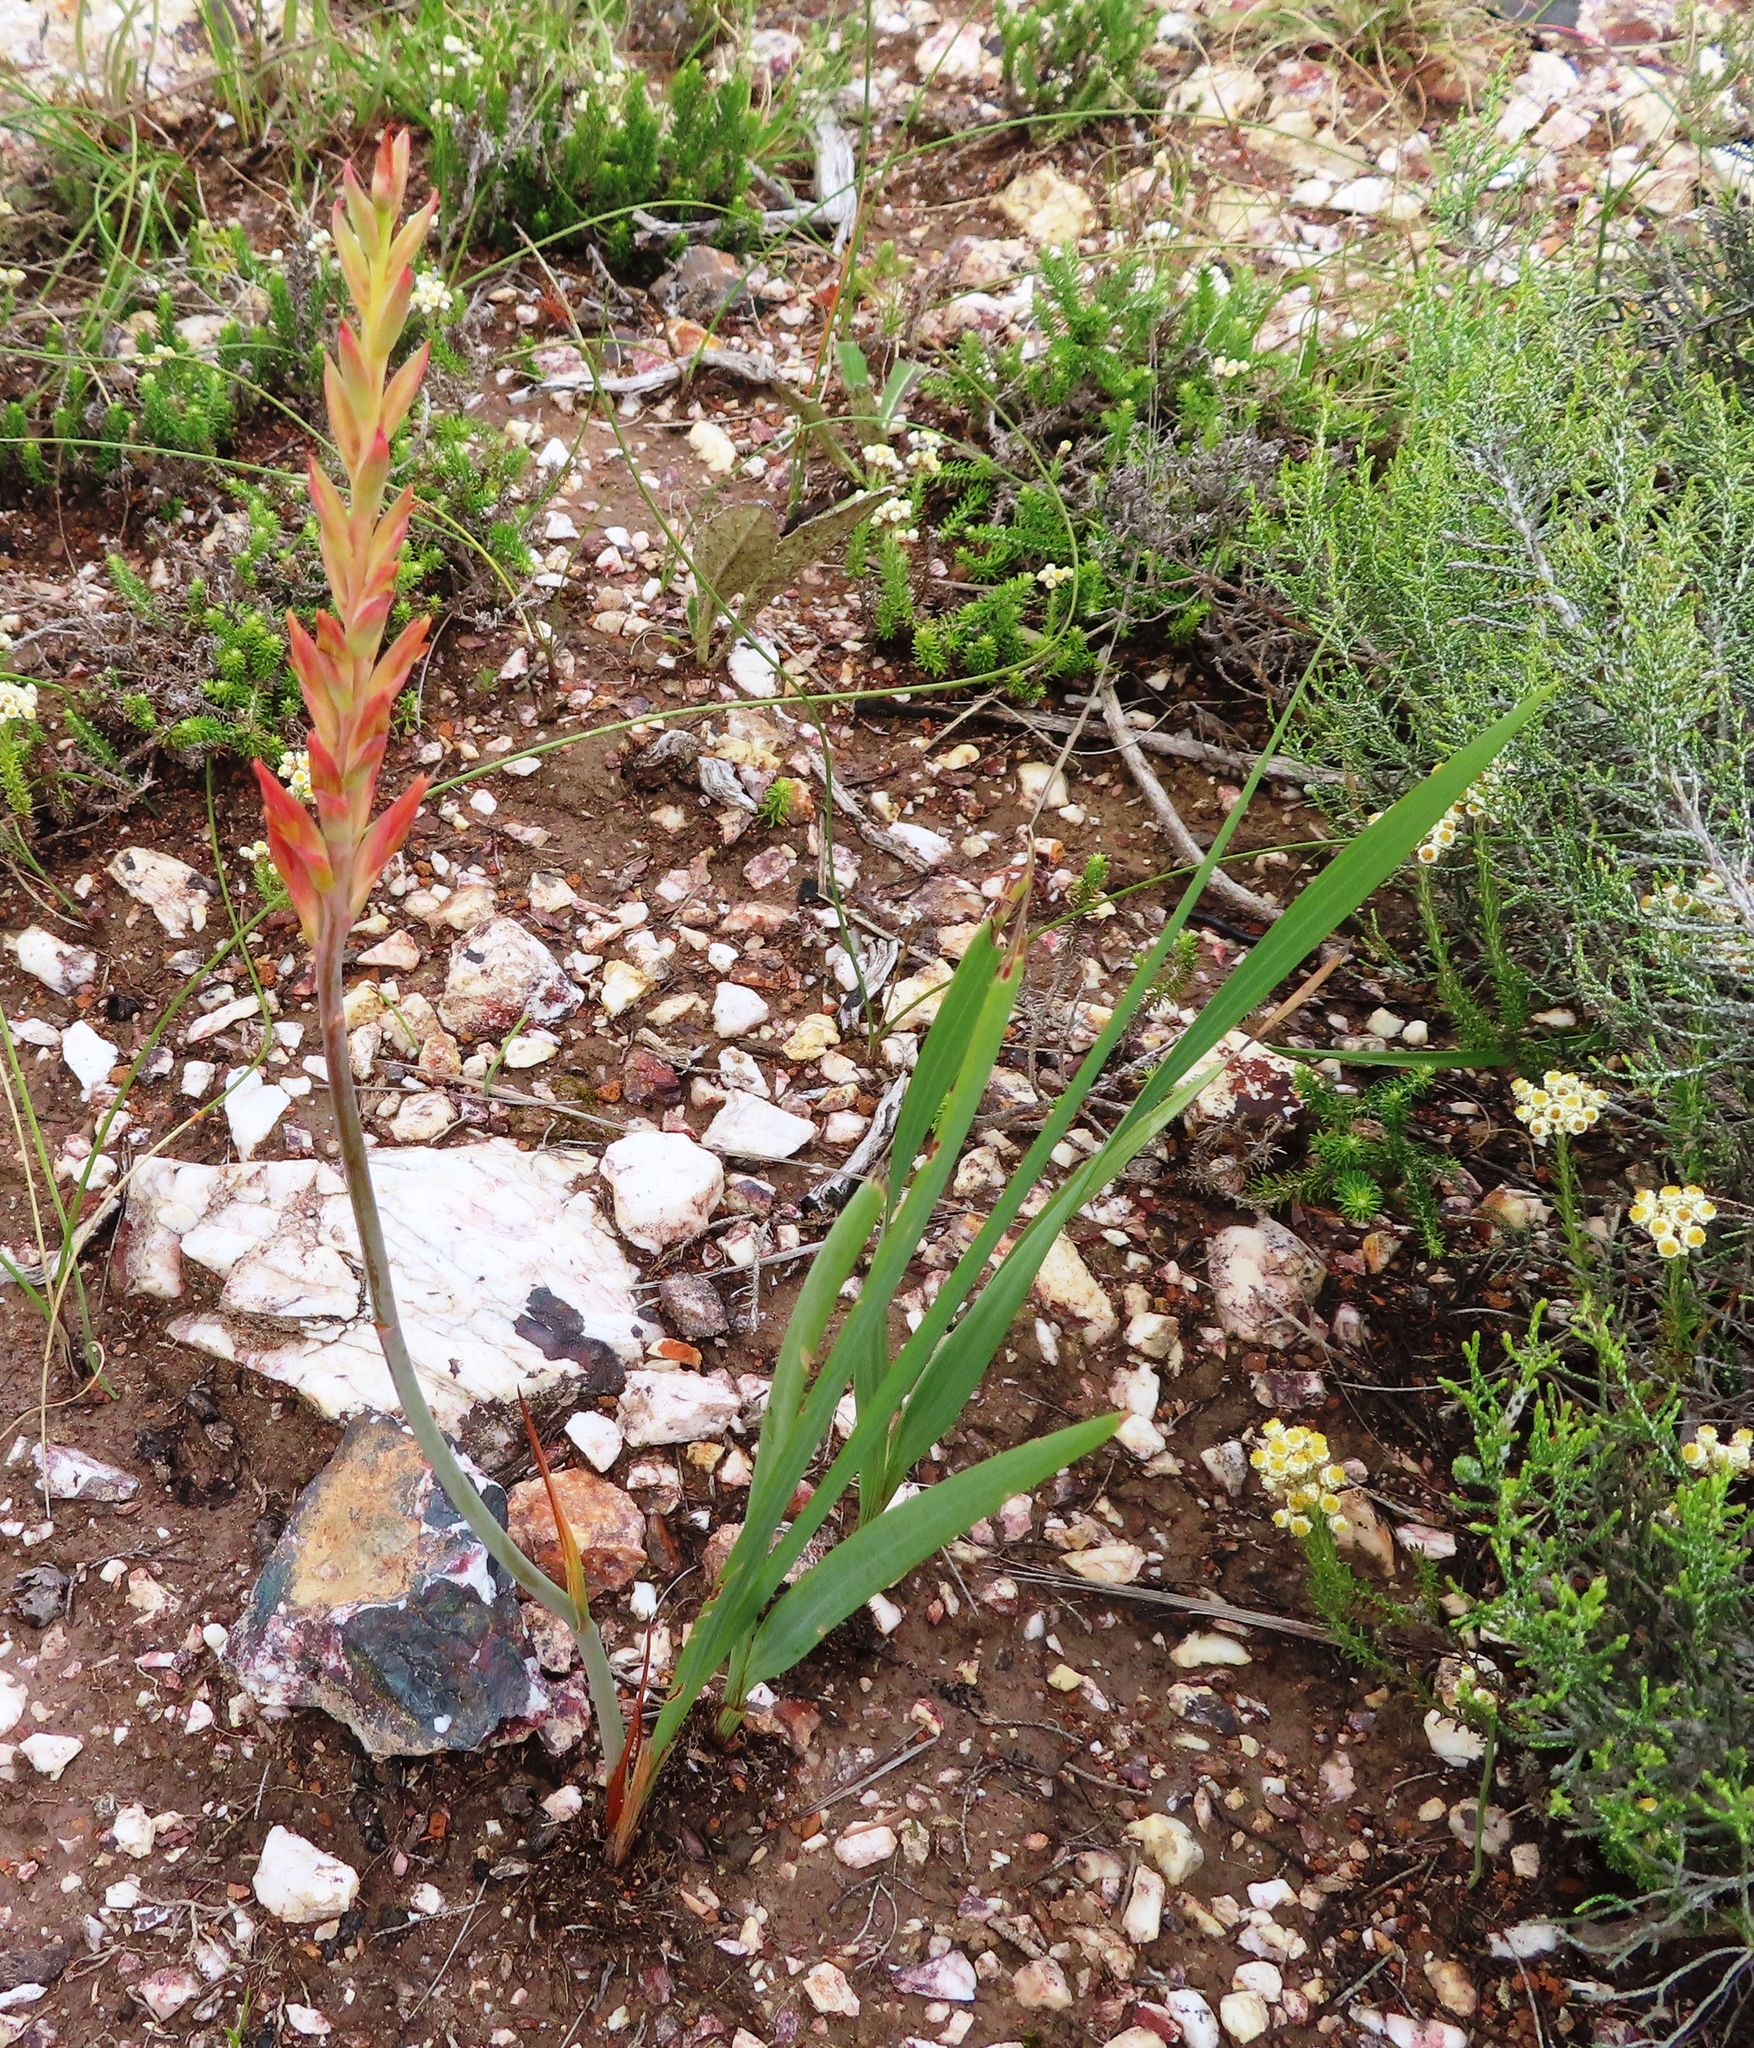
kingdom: Plantae
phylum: Tracheophyta
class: Liliopsida
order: Asparagales
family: Iridaceae
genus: Tritoniopsis
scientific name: Tritoniopsis antholyza
